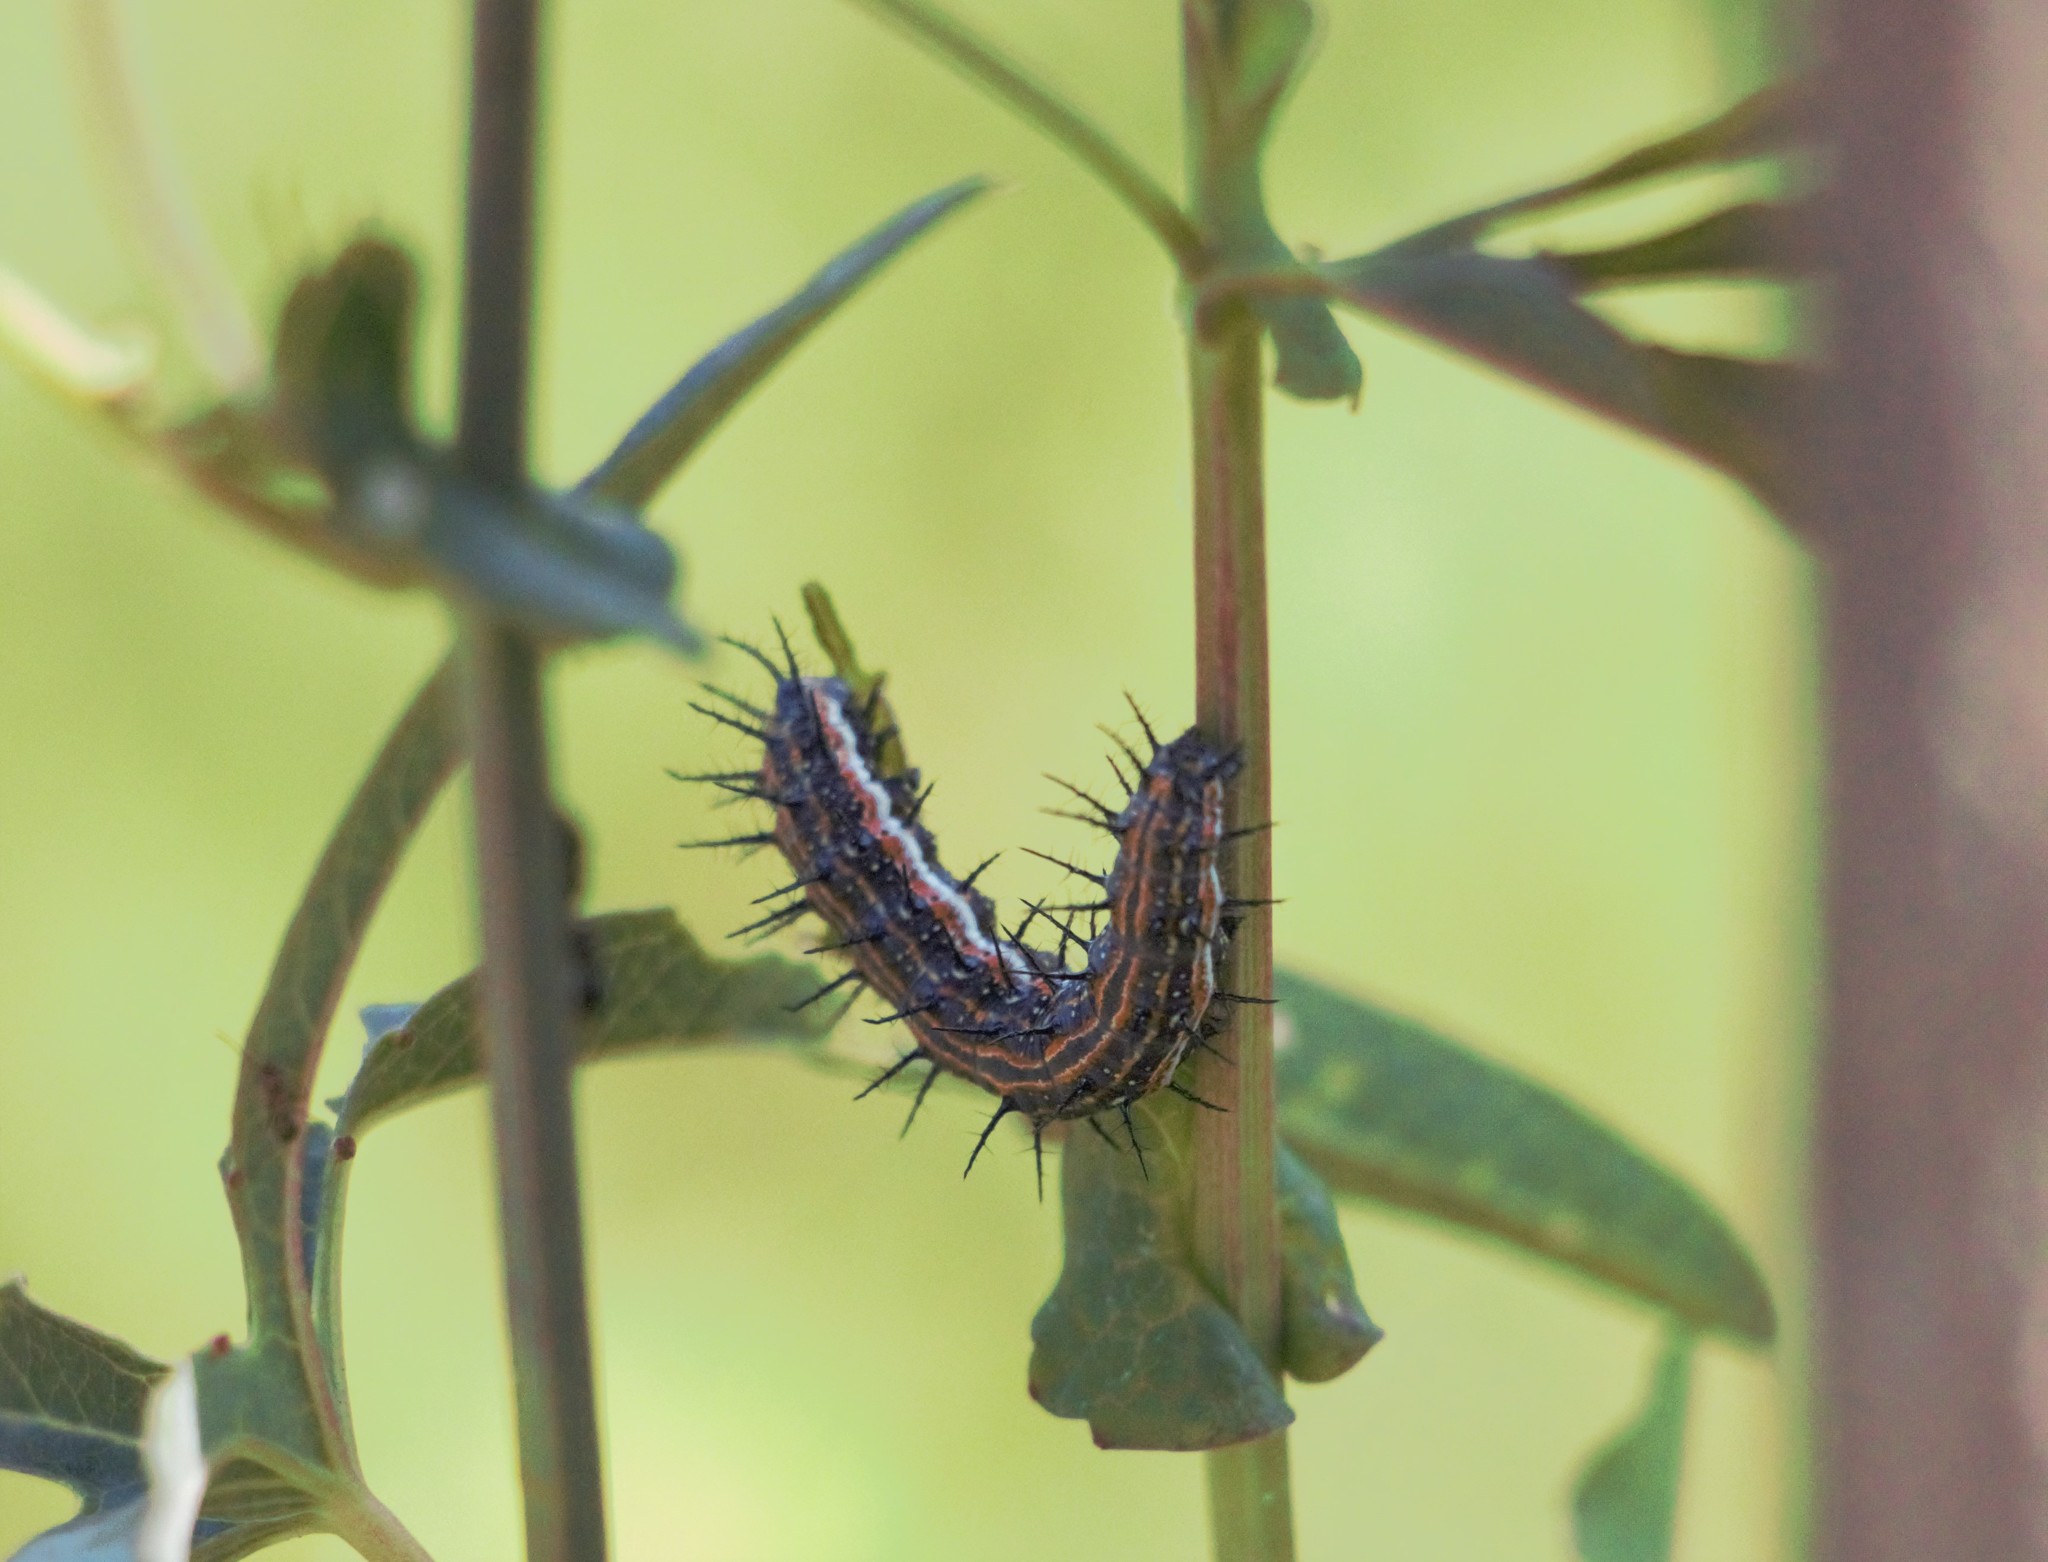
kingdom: Animalia
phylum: Arthropoda
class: Insecta
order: Lepidoptera
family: Nymphalidae
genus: Dione
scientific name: Dione vanillae
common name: Gulf fritillary
